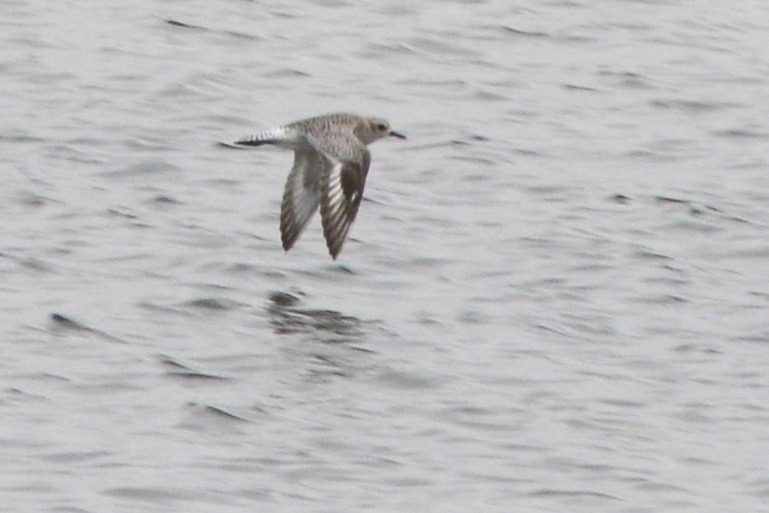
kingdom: Animalia
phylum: Chordata
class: Aves
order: Charadriiformes
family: Charadriidae
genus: Pluvialis
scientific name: Pluvialis squatarola
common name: Grey plover
